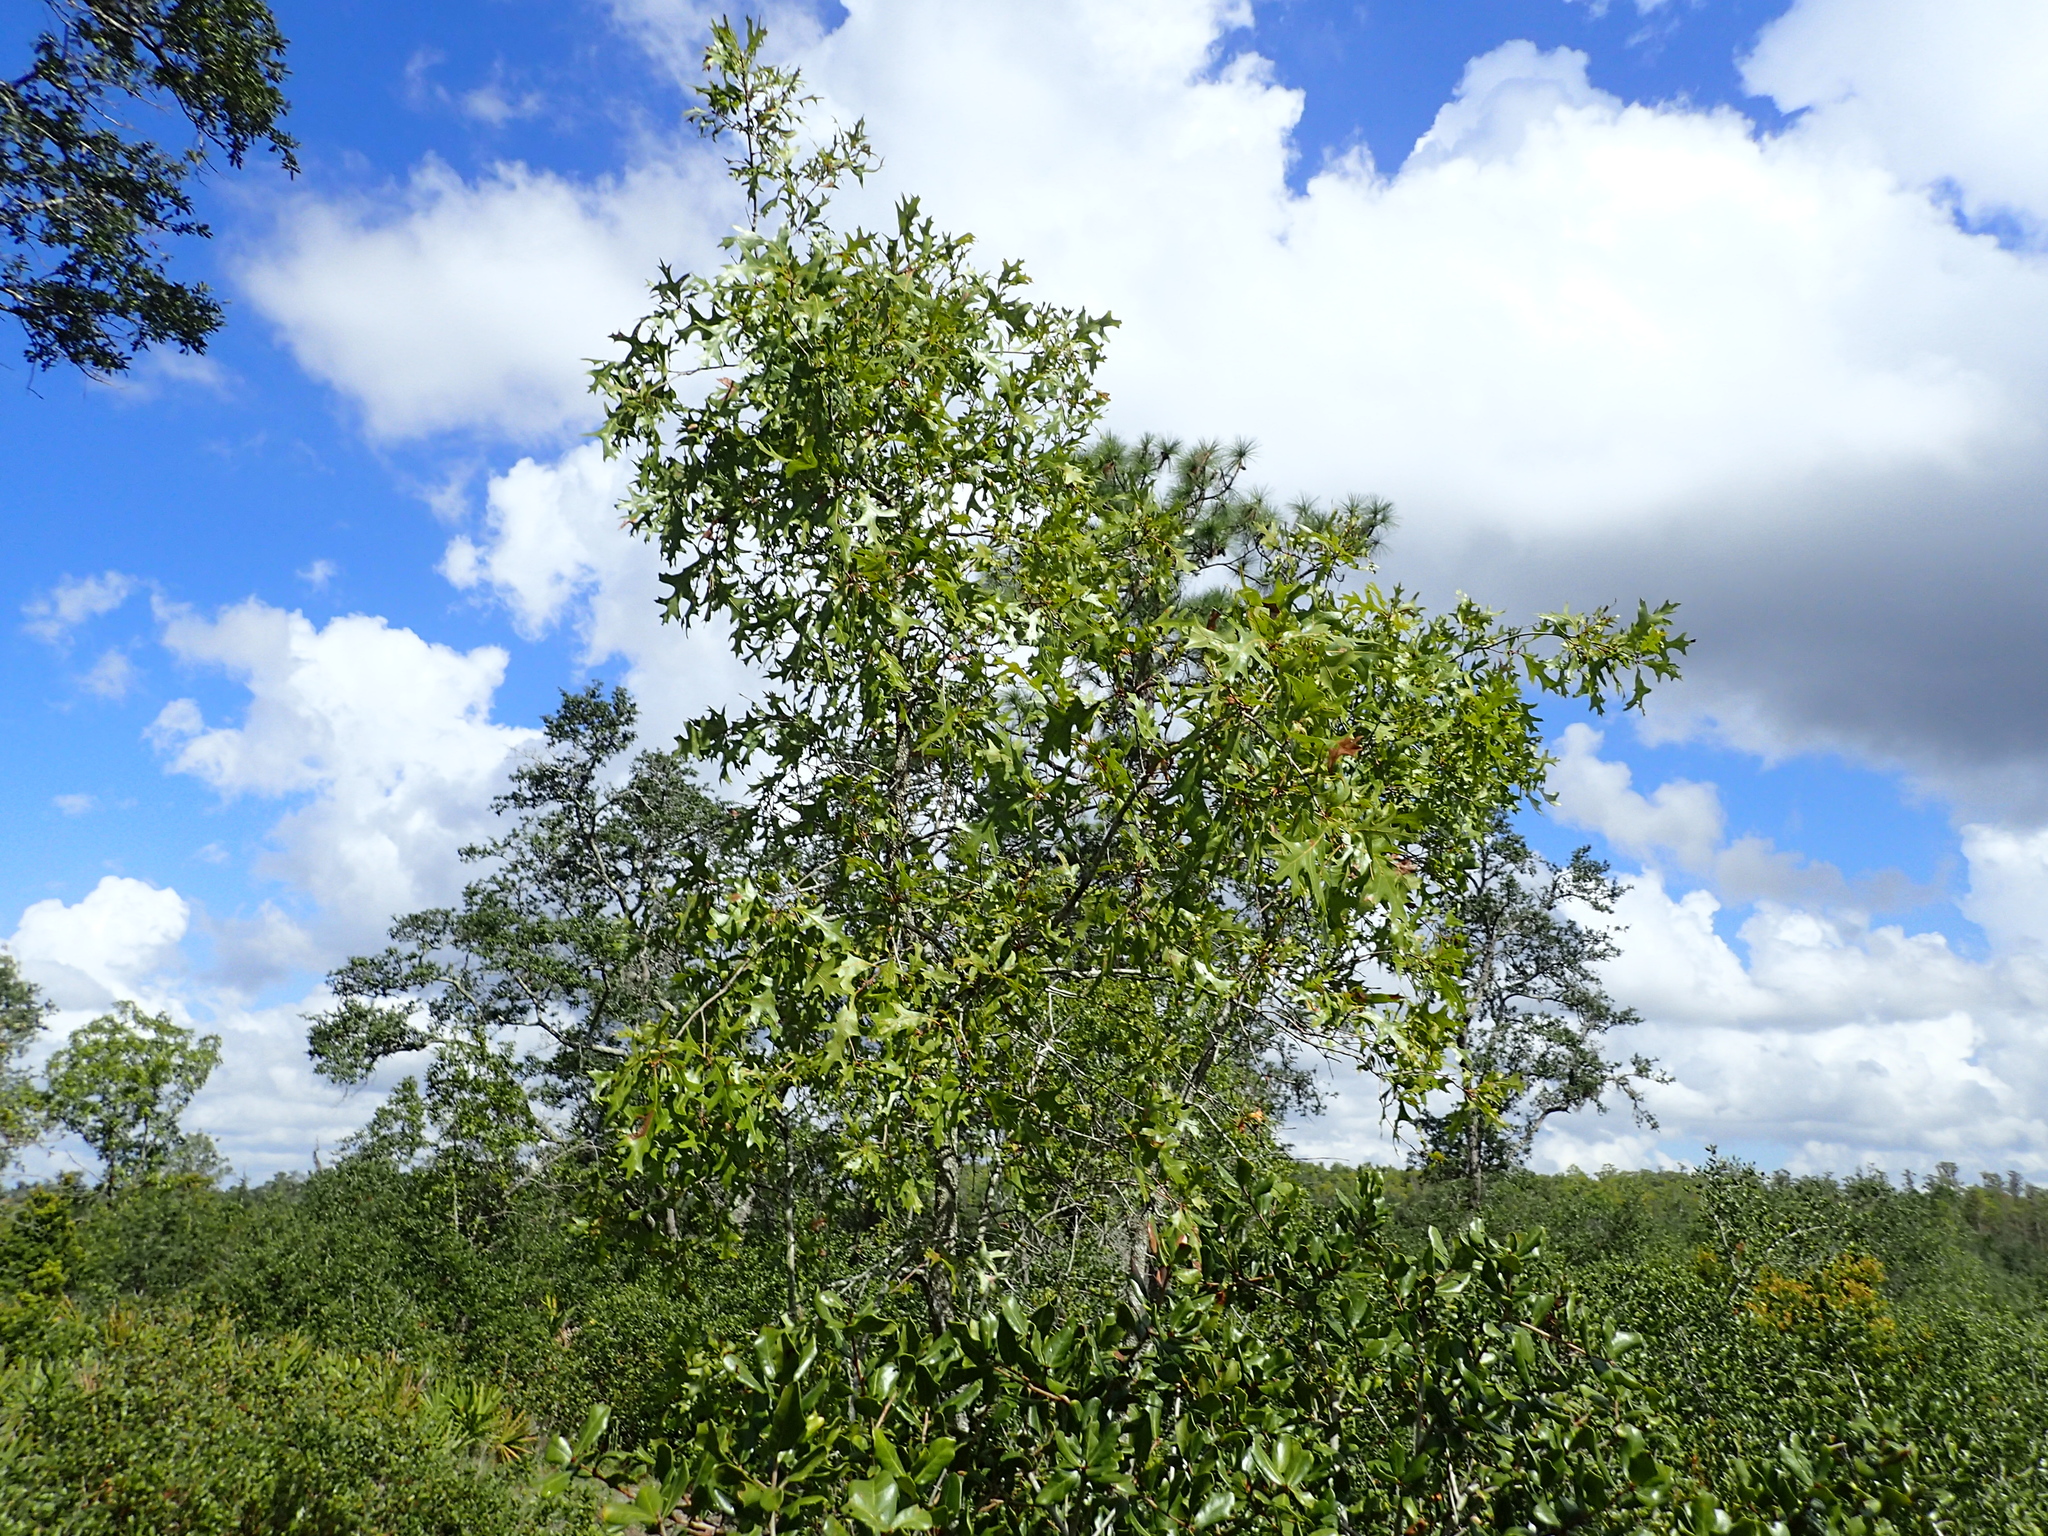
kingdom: Plantae
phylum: Tracheophyta
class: Magnoliopsida
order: Fagales
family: Fagaceae
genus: Quercus
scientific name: Quercus laevis
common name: Turkey oak
